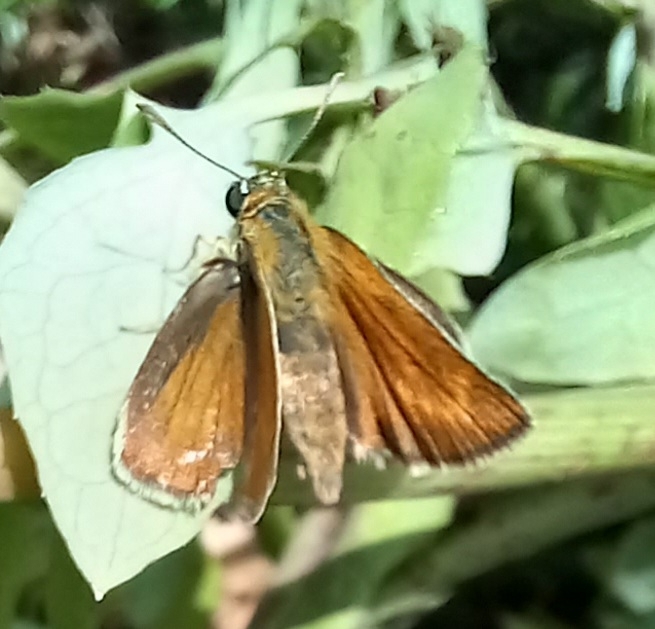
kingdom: Animalia
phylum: Arthropoda
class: Insecta
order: Lepidoptera
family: Hesperiidae
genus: Thymelicus
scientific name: Thymelicus acteon
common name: Lulworth skipper
